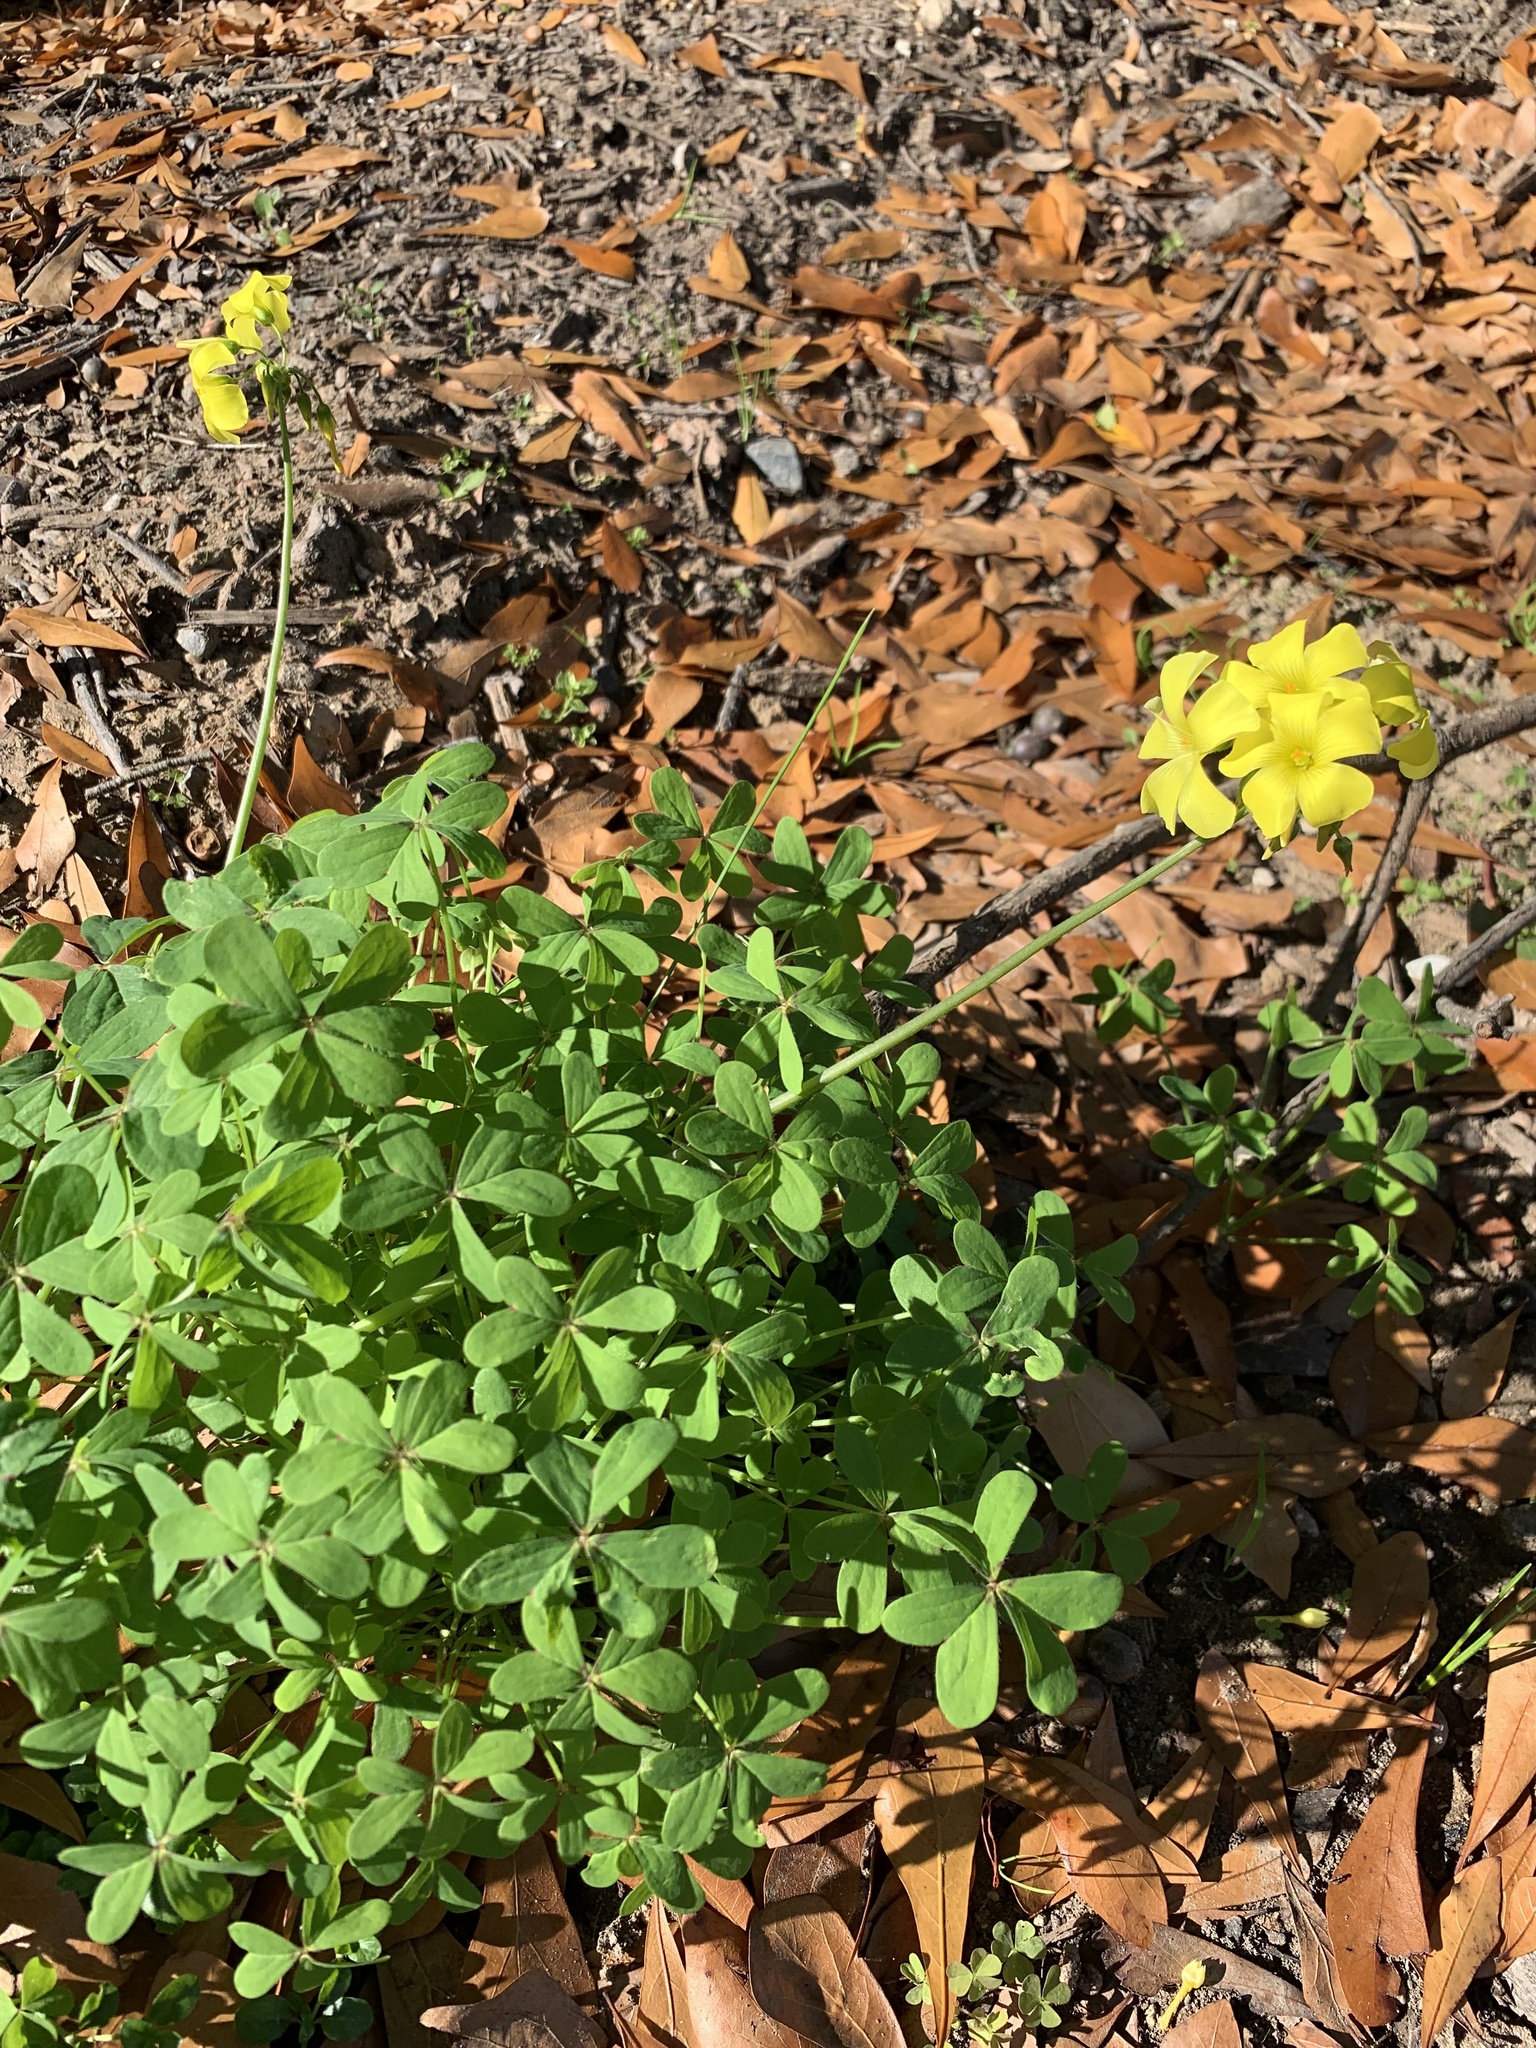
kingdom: Plantae
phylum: Tracheophyta
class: Magnoliopsida
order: Oxalidales
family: Oxalidaceae
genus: Oxalis
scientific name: Oxalis pes-caprae
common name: Bermuda-buttercup
